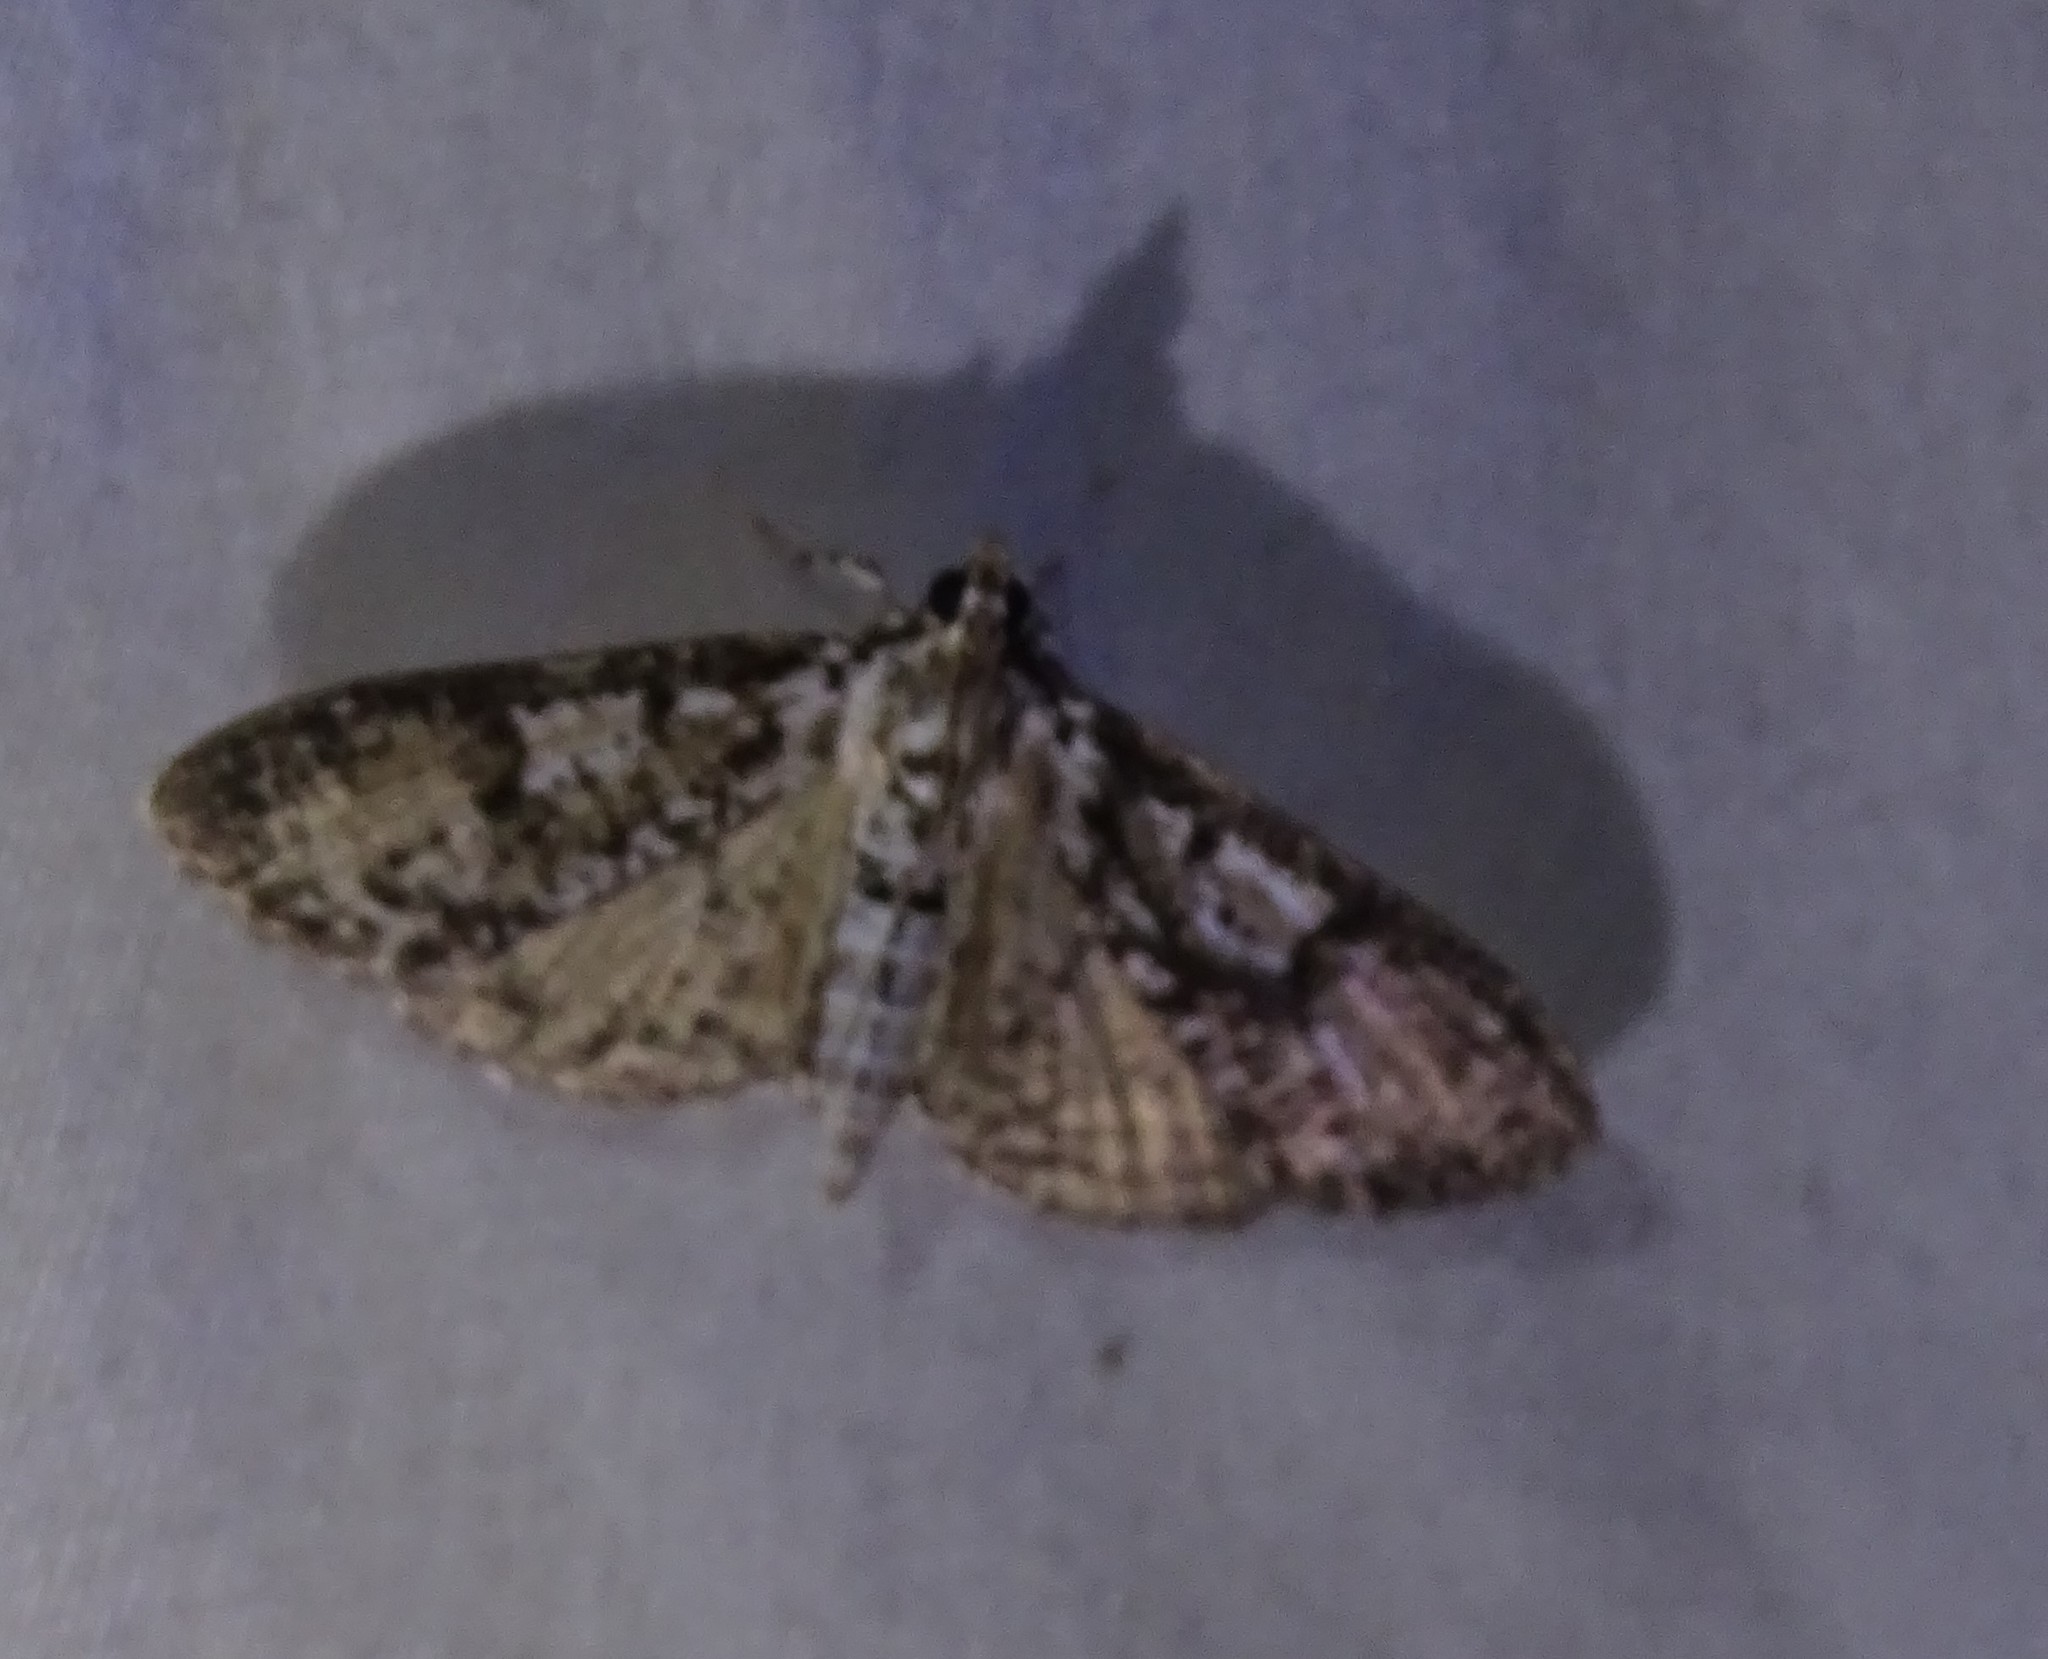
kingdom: Animalia
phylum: Arthropoda
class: Insecta
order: Lepidoptera
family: Crambidae
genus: Palpita
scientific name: Palpita magniferalis
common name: Splendid palpita moth
